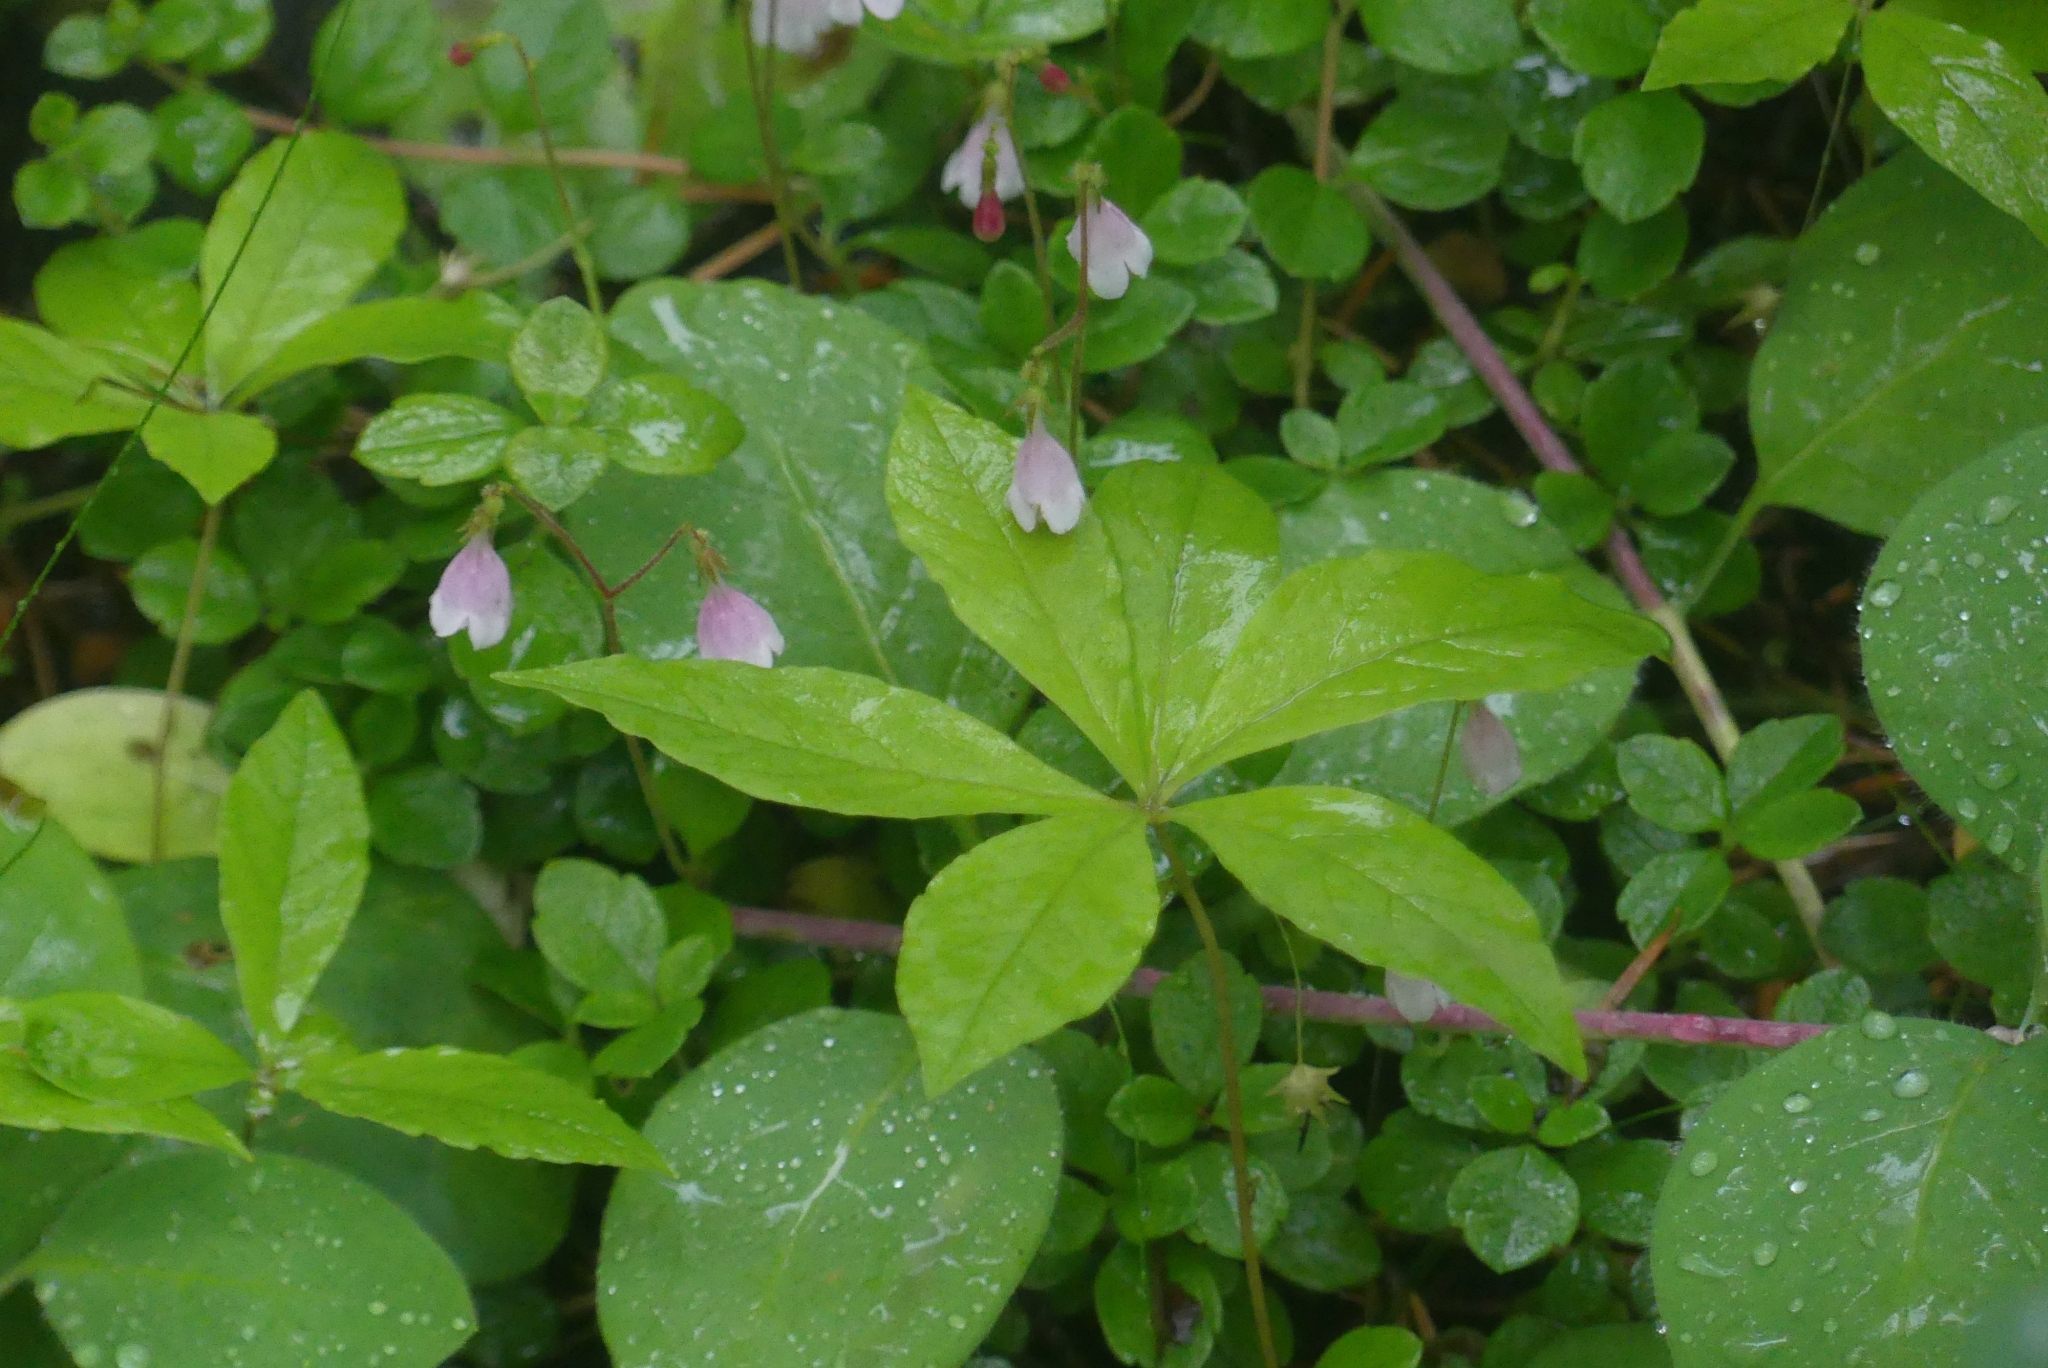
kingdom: Plantae
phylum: Tracheophyta
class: Magnoliopsida
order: Dipsacales
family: Caprifoliaceae
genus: Linnaea
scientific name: Linnaea borealis
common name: Twinflower
